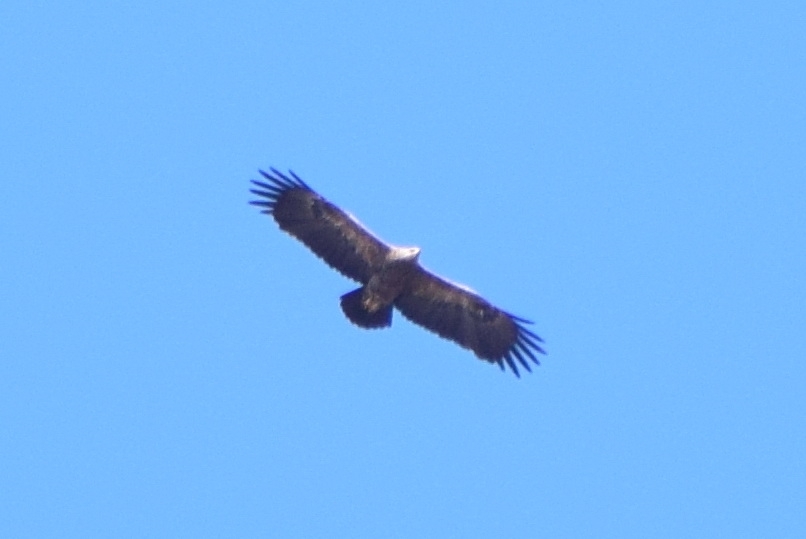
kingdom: Animalia
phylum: Chordata
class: Aves
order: Accipitriformes
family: Accipitridae
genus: Aquila
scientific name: Aquila pomarina
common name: Lesser spotted eagle
